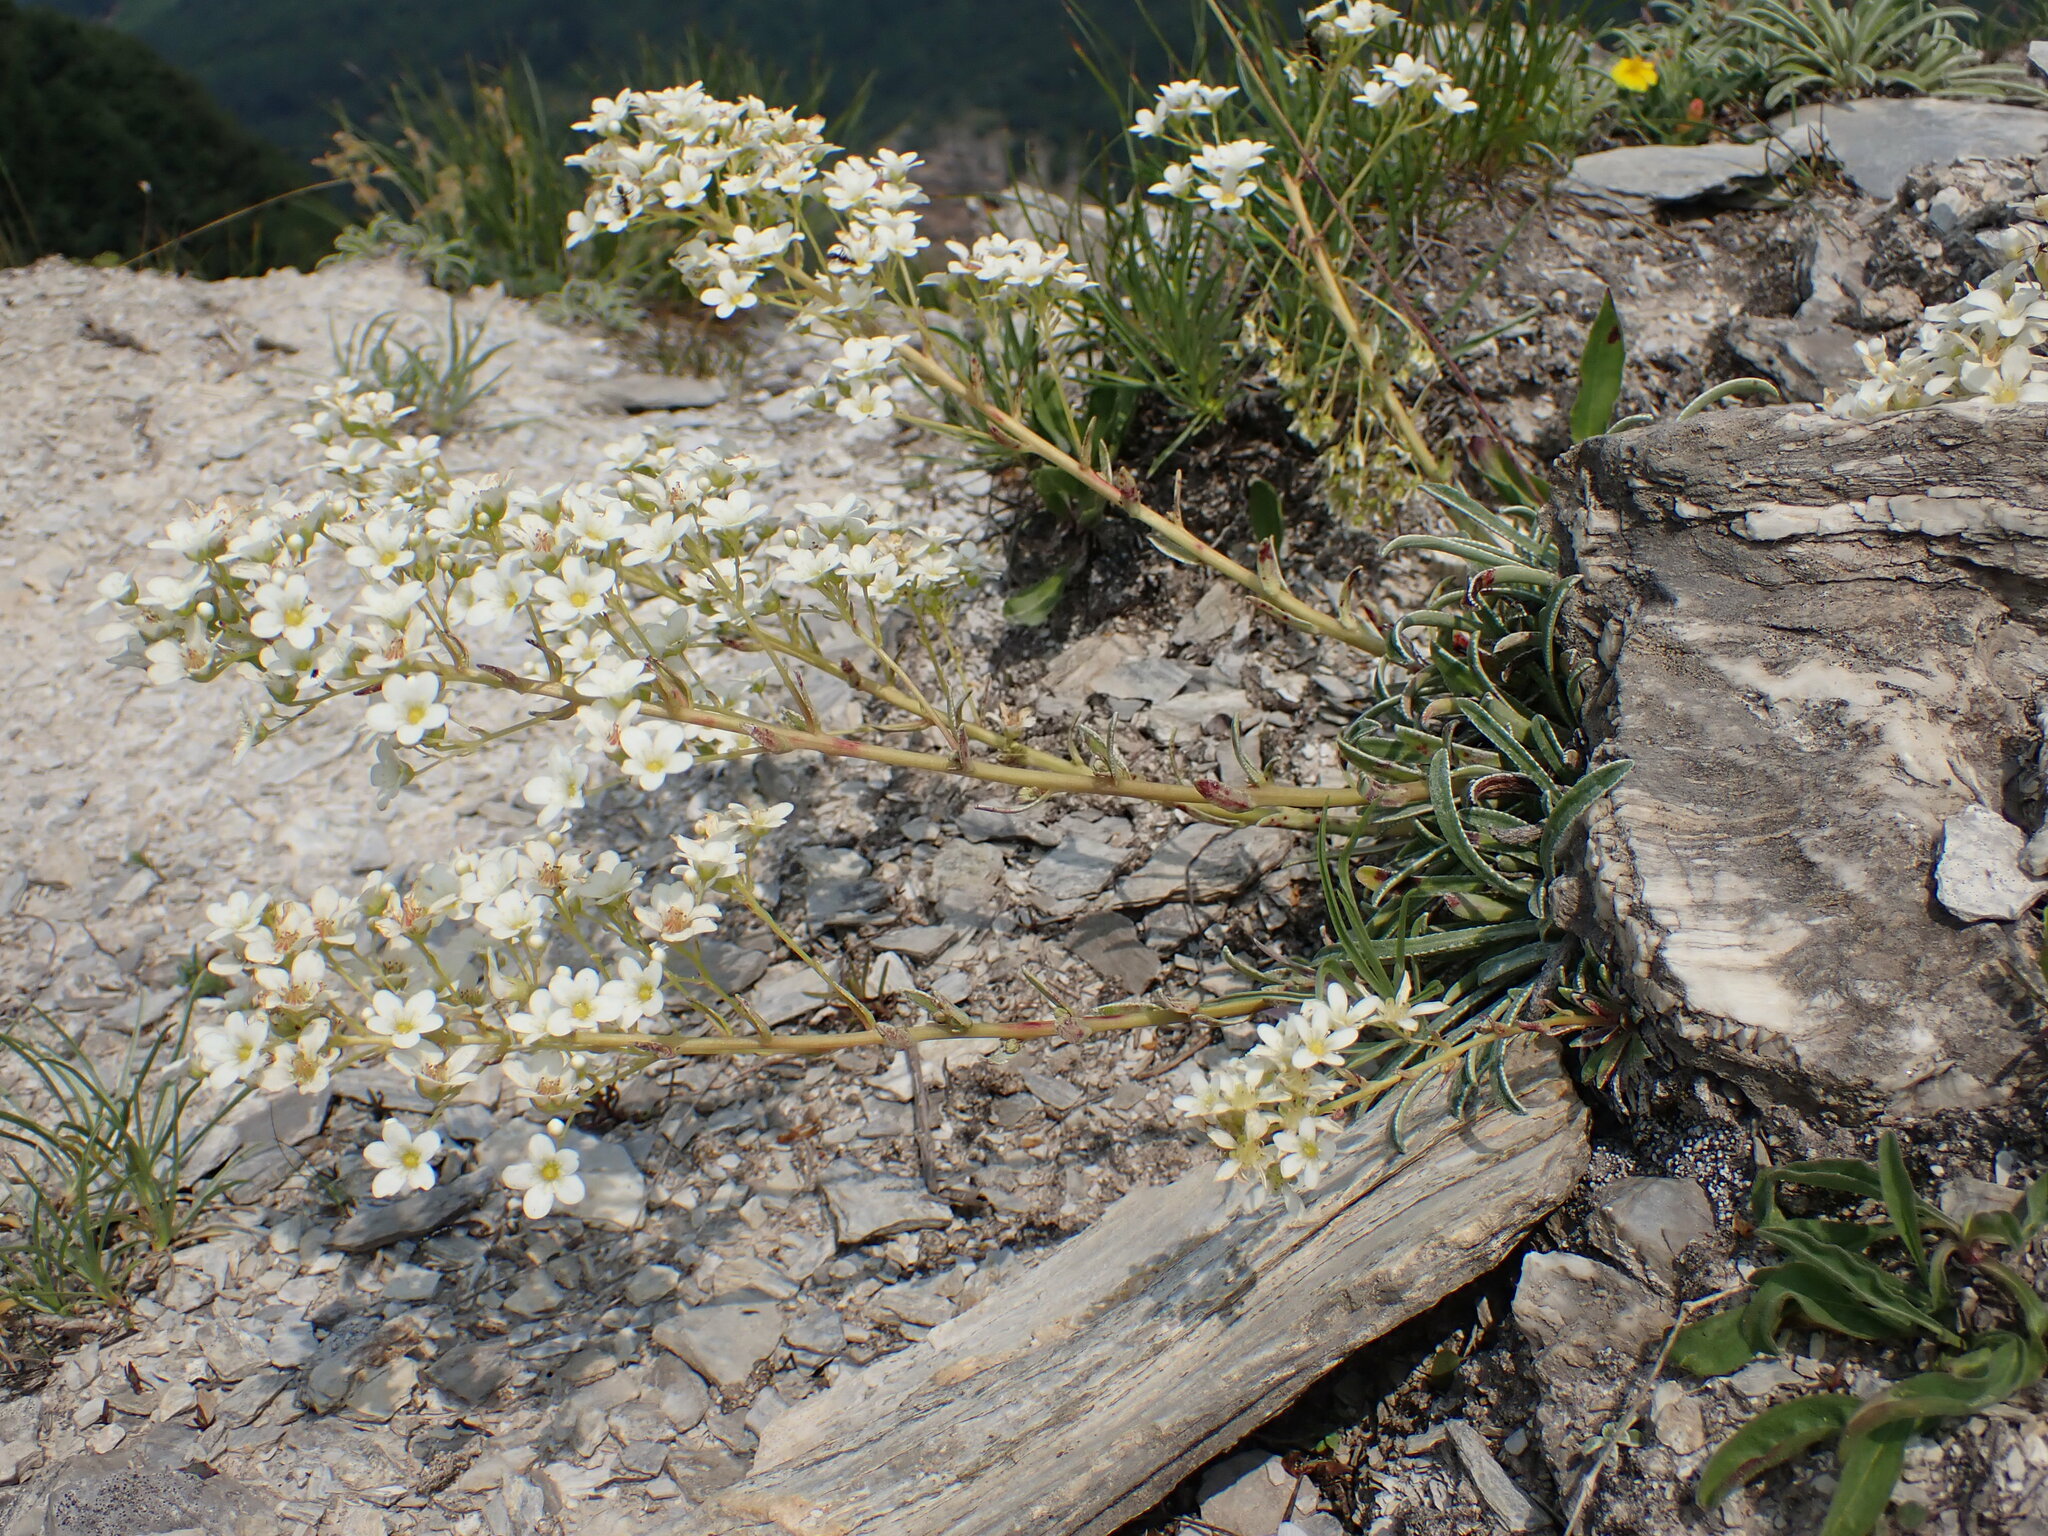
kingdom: Plantae
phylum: Tracheophyta
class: Magnoliopsida
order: Saxifragales
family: Saxifragaceae
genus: Saxifraga
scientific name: Saxifraga callosa
